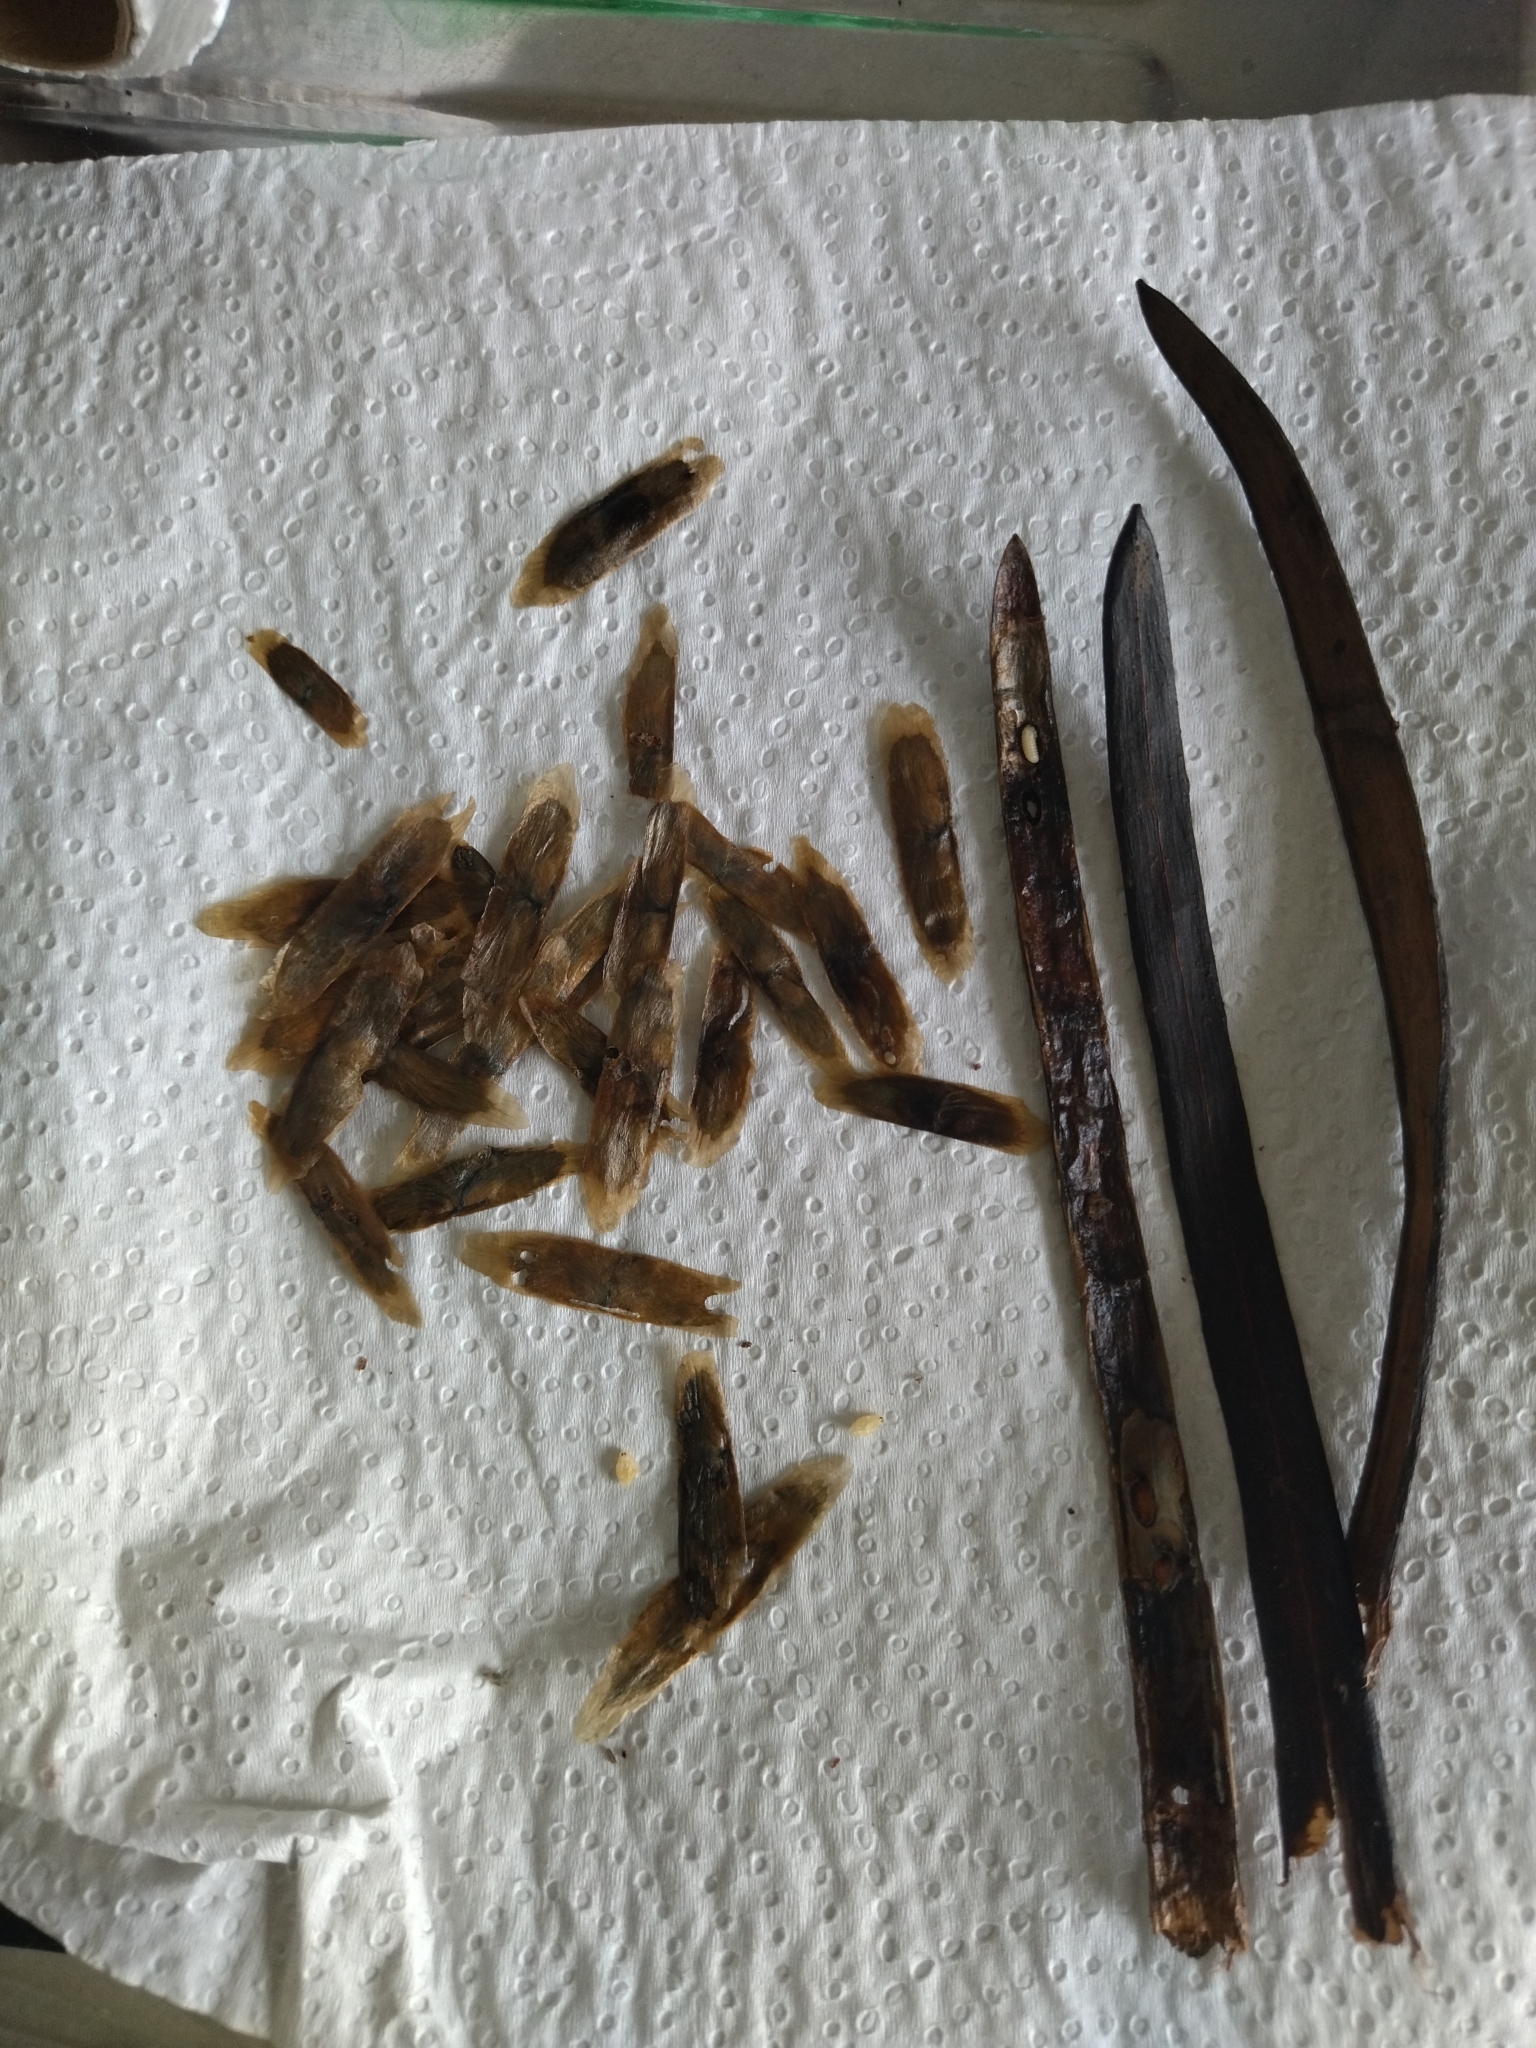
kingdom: Plantae
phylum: Tracheophyta
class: Magnoliopsida
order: Lamiales
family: Bignoniaceae
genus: Dolichandra
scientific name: Dolichandra unguis-cati
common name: Catclaw vine
